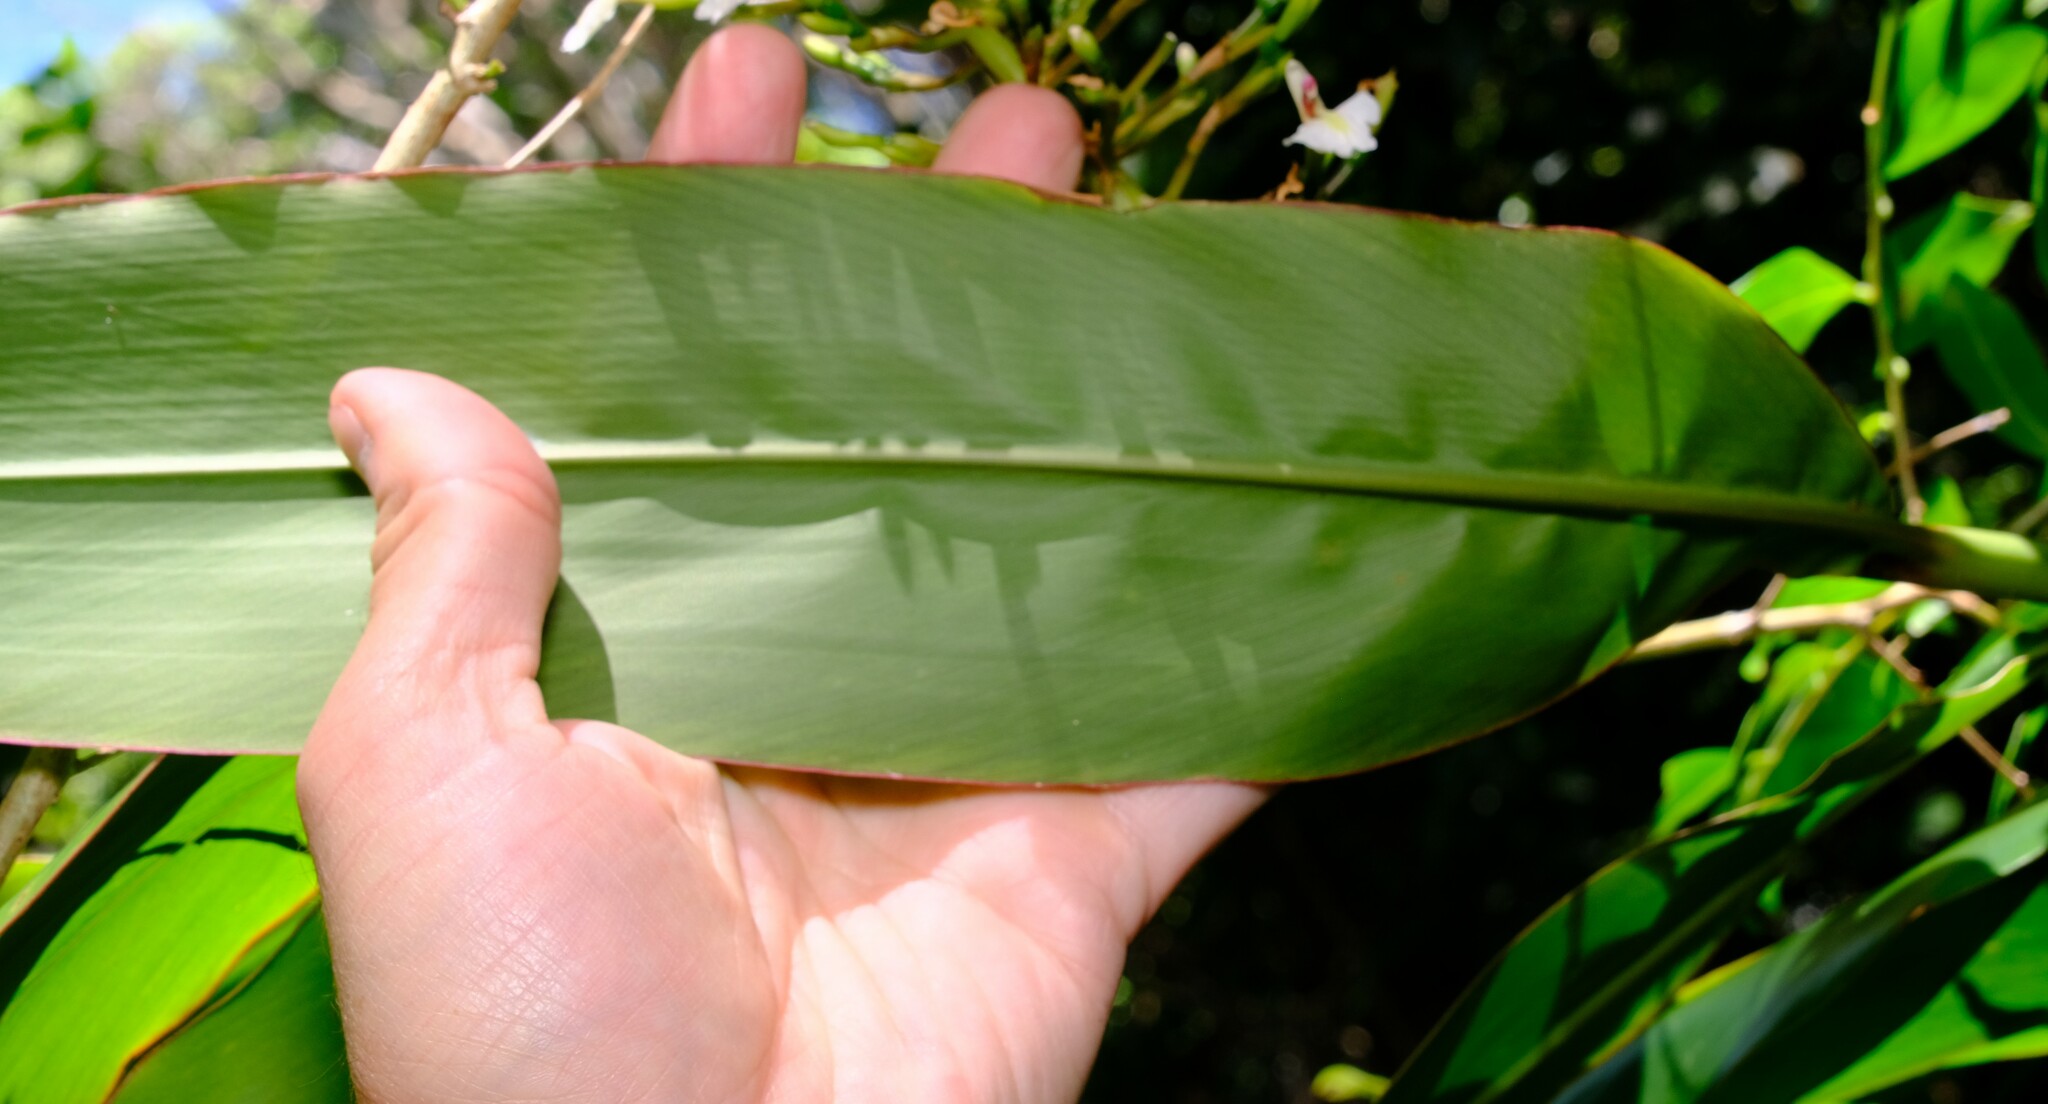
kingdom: Plantae
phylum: Tracheophyta
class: Liliopsida
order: Zingiberales
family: Zingiberaceae
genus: Alpinia
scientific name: Alpinia caerulea
